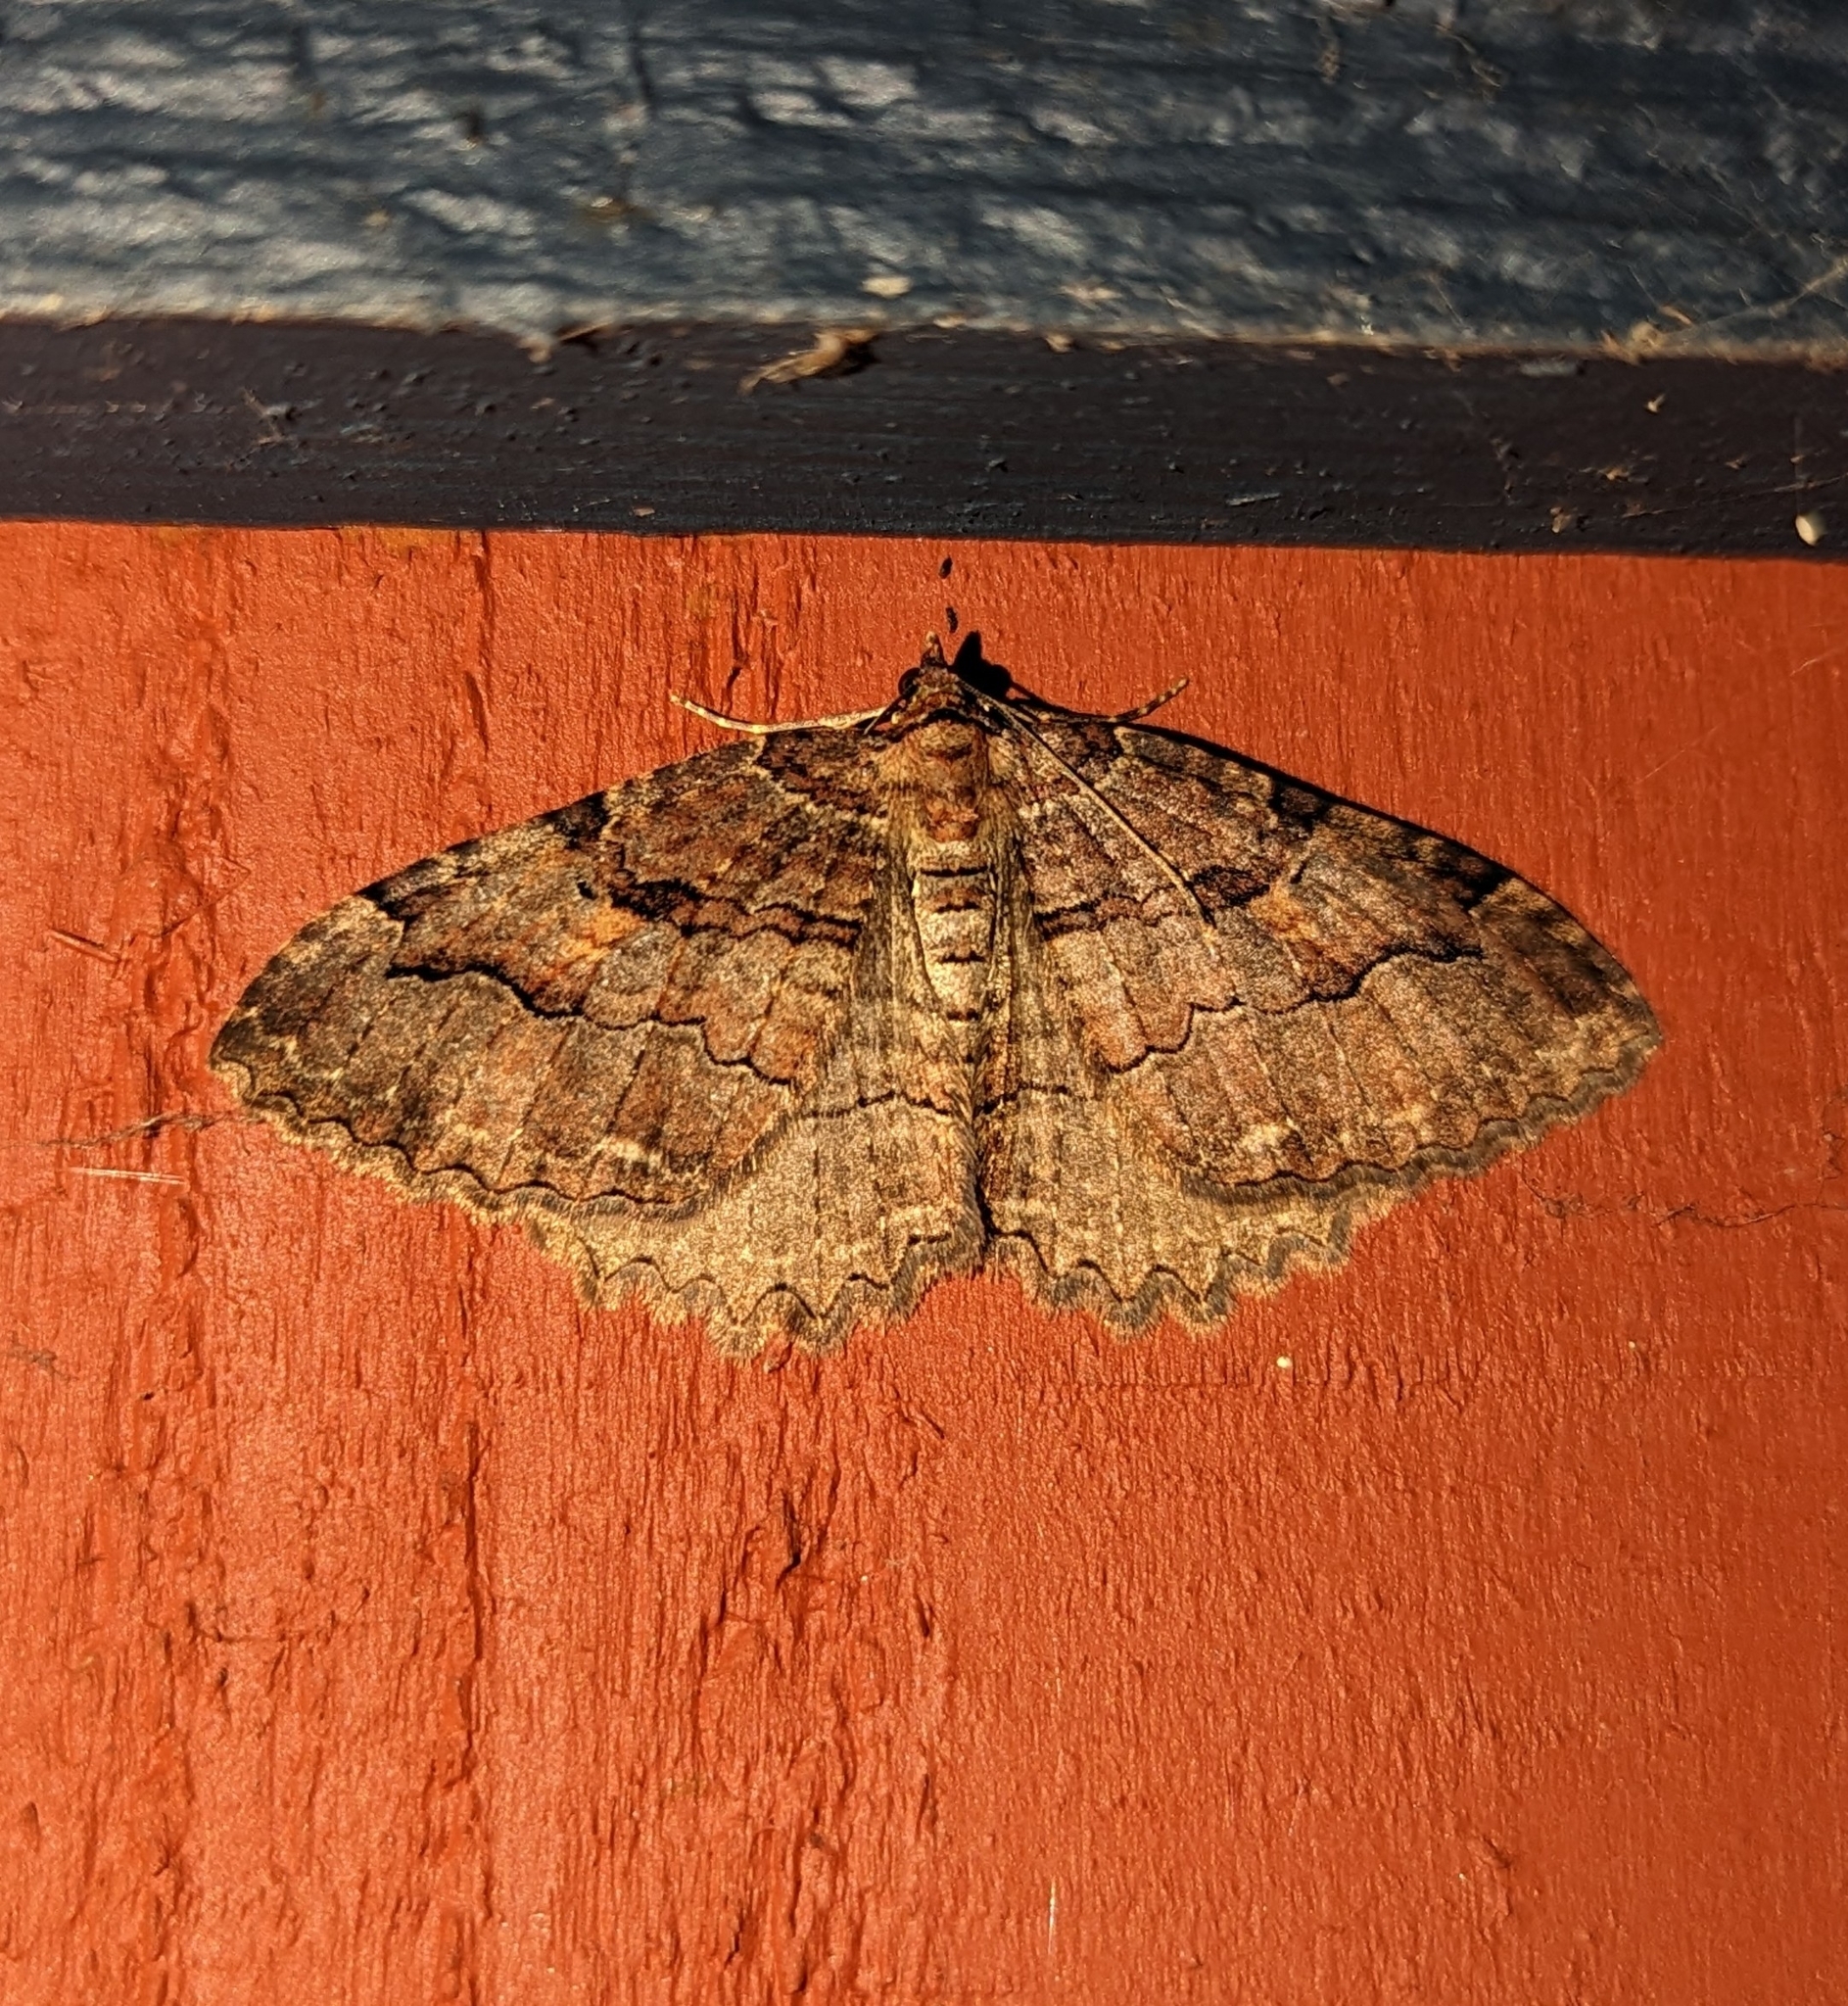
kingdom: Animalia
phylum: Arthropoda
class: Insecta
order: Lepidoptera
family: Geometridae
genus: Triphosa
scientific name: Triphosa haesitata
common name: Tissue moth
